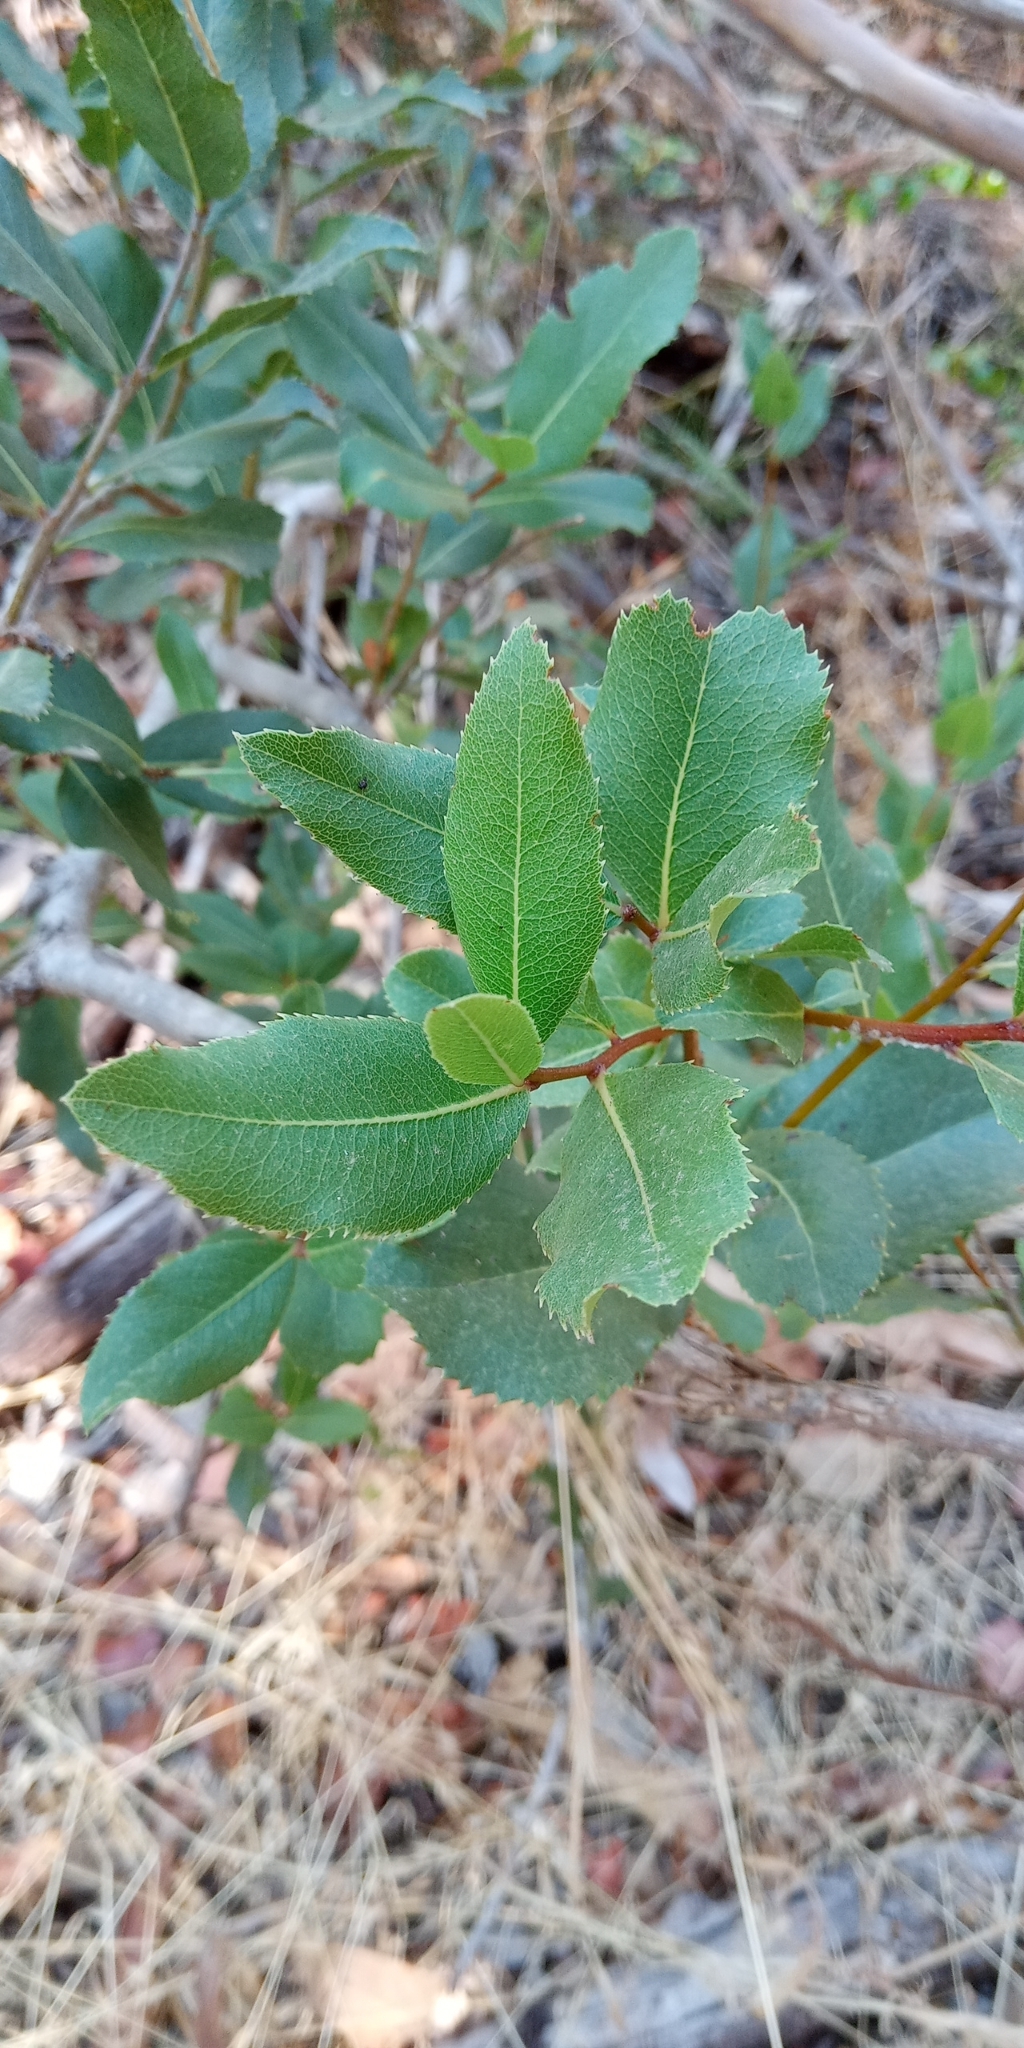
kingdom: Plantae
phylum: Tracheophyta
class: Magnoliopsida
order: Rosales
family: Rosaceae
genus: Kageneckia
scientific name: Kageneckia oblonga
